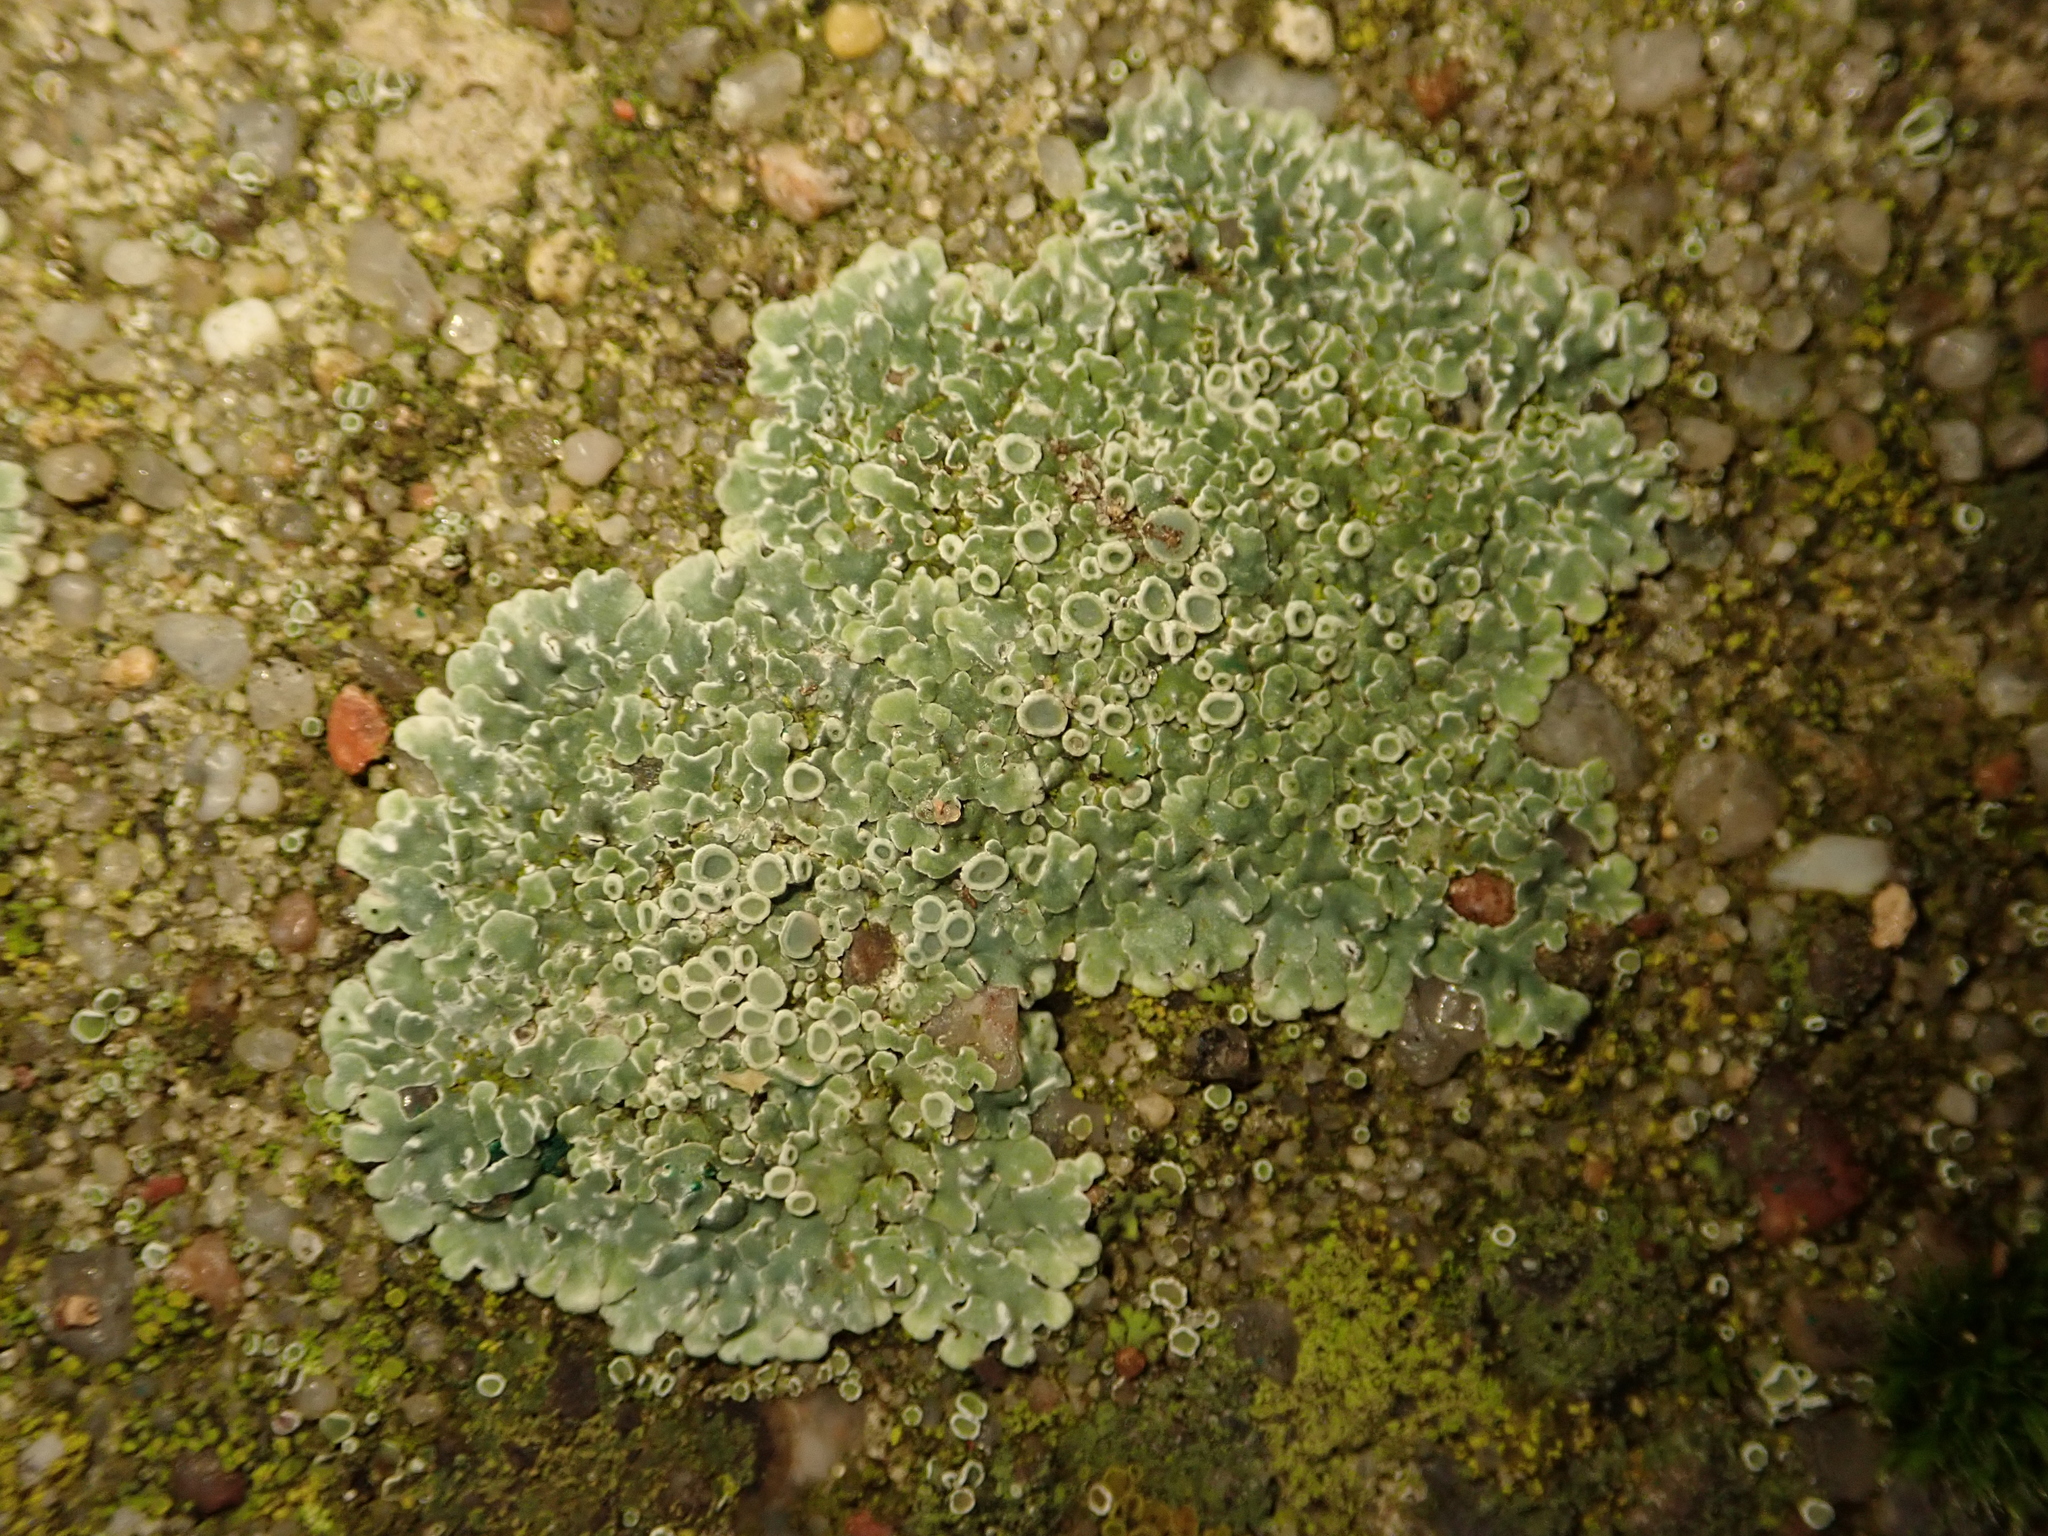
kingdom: Fungi
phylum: Ascomycota
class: Lecanoromycetes
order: Lecanorales
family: Lecanoraceae
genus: Protoparmeliopsis
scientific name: Protoparmeliopsis muralis
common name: Stonewall rim lichen
